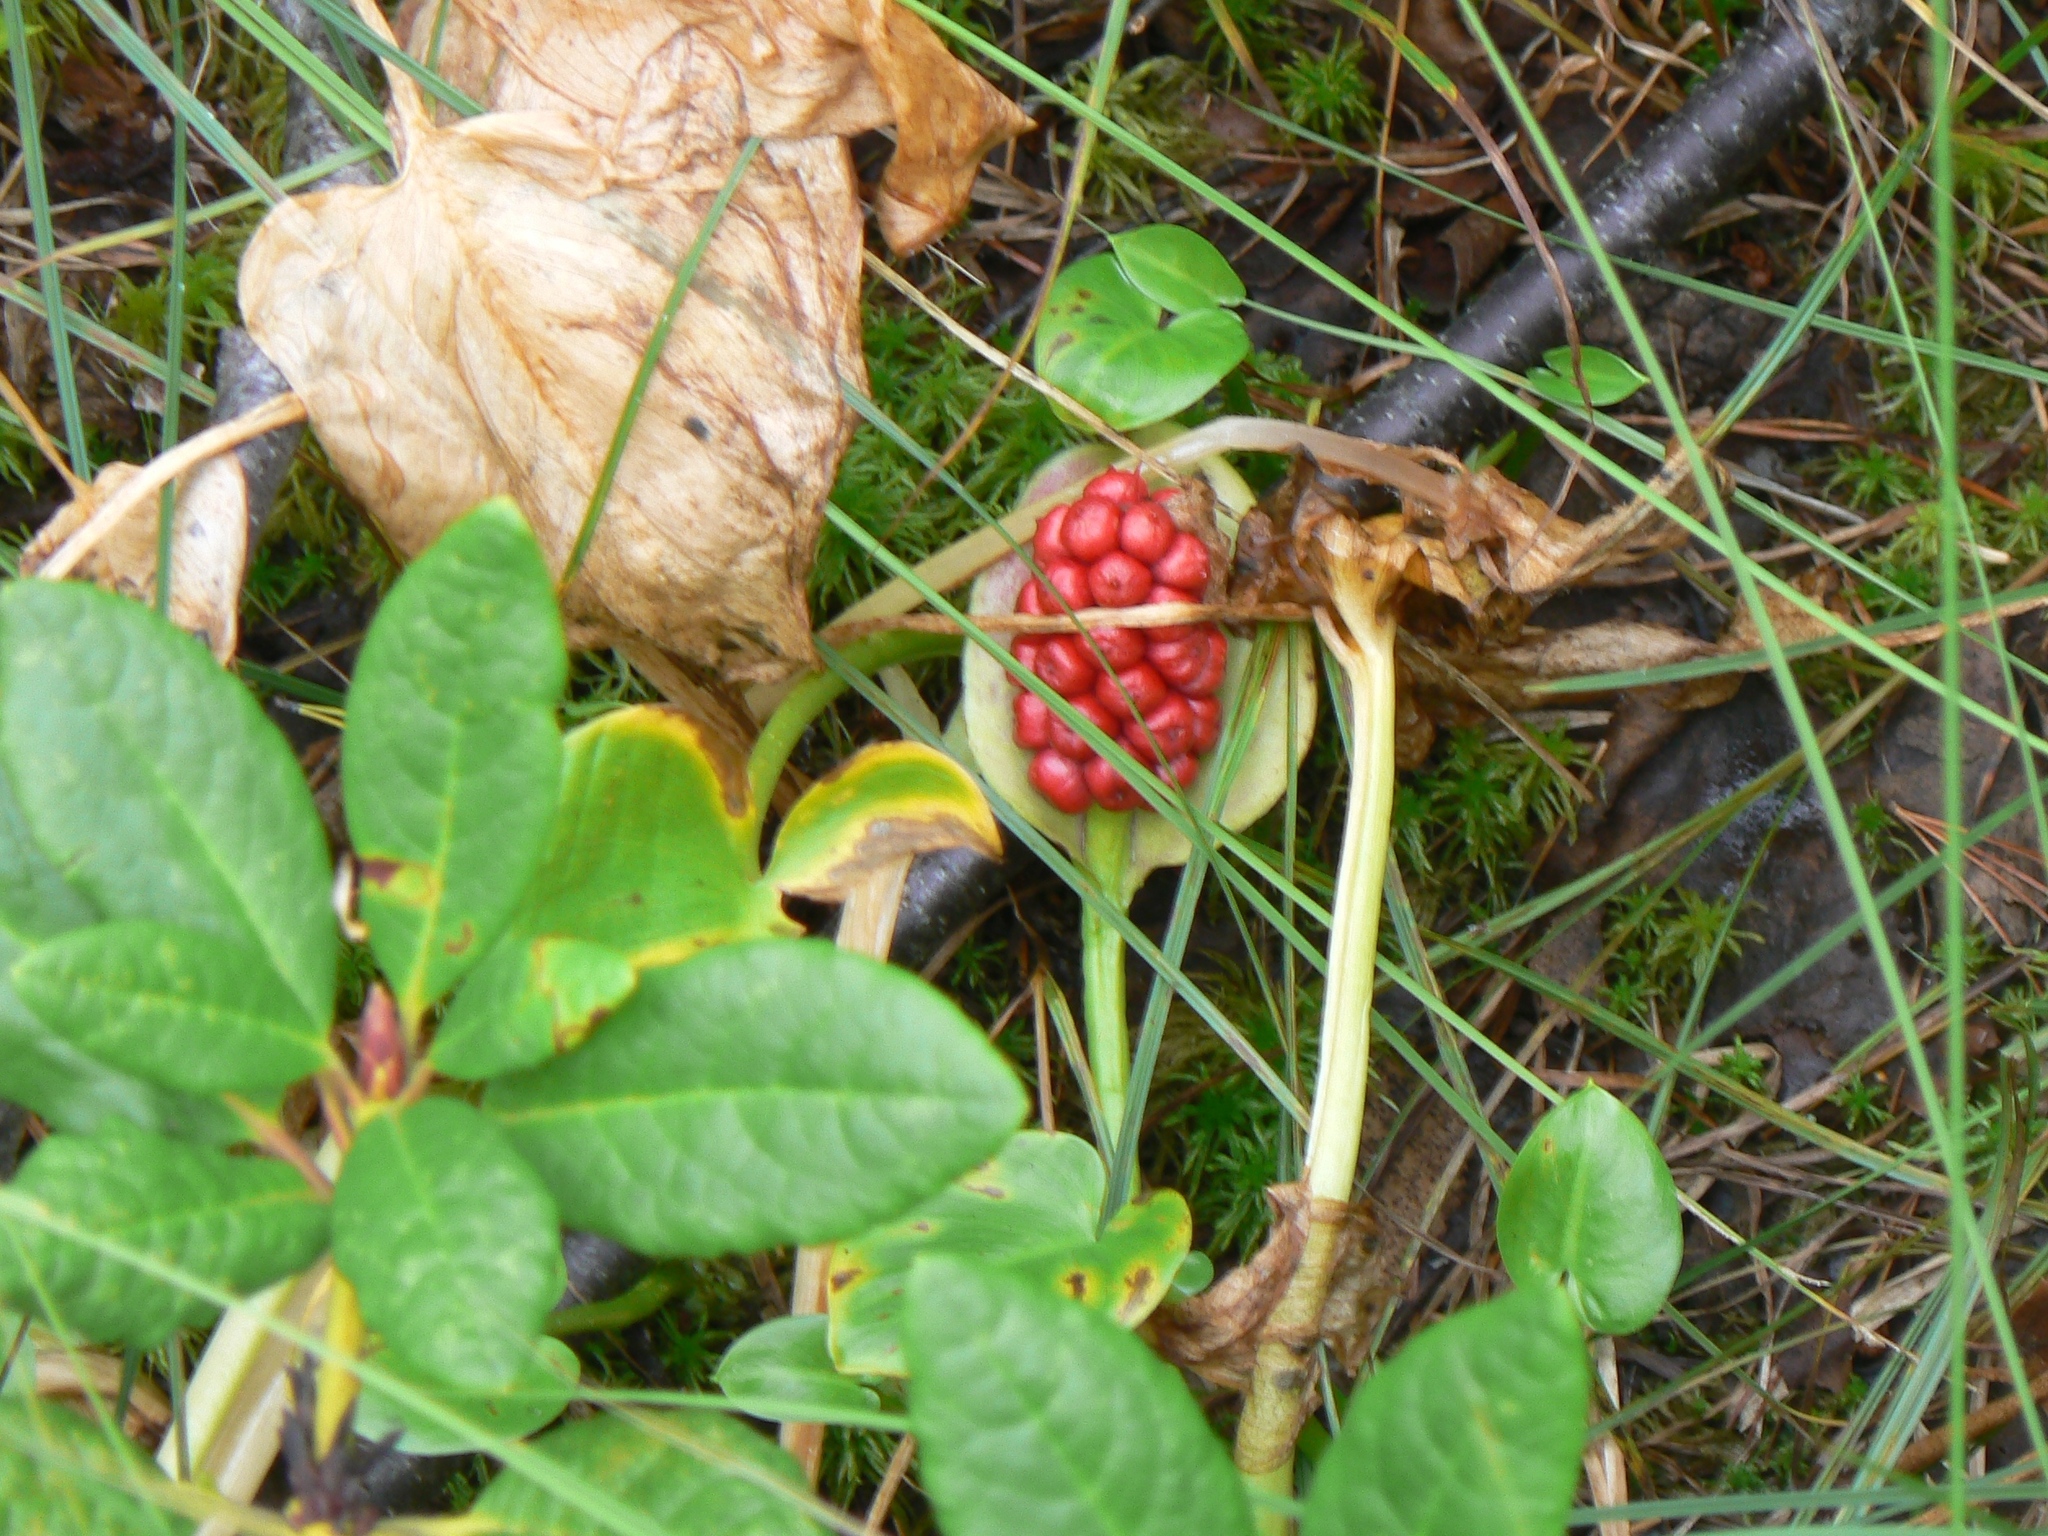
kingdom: Plantae
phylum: Tracheophyta
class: Liliopsida
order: Alismatales
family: Araceae
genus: Calla
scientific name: Calla palustris
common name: Bog arum
